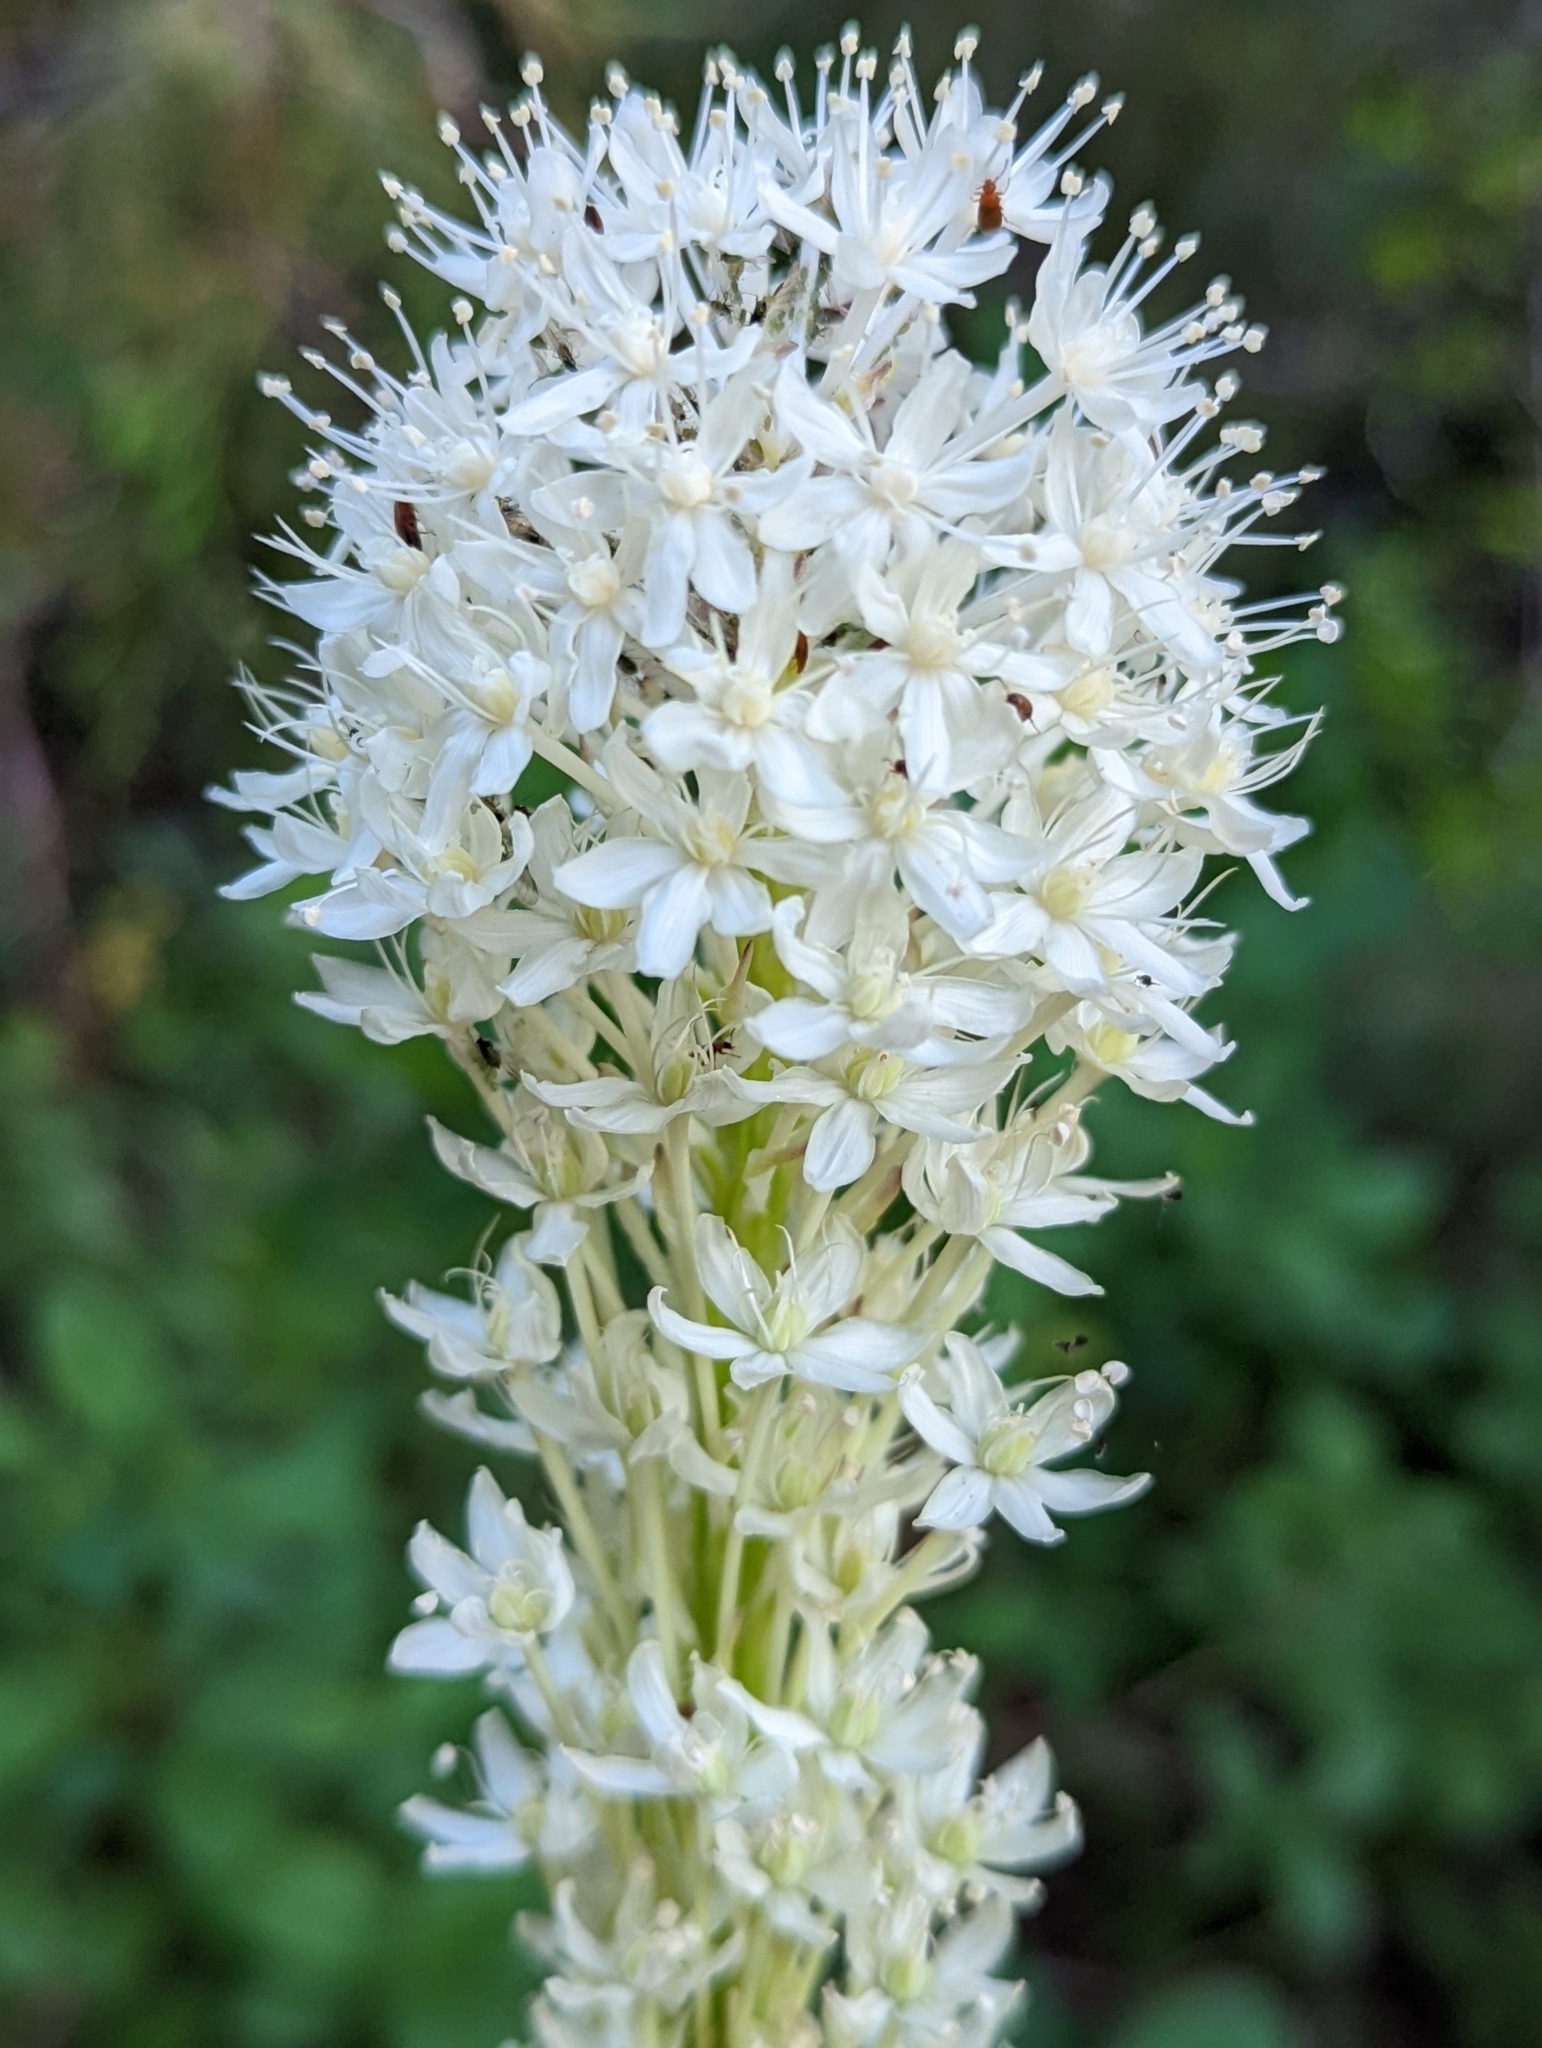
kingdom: Plantae
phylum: Tracheophyta
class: Liliopsida
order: Liliales
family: Melanthiaceae
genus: Xerophyllum
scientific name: Xerophyllum tenax
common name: Bear-grass
